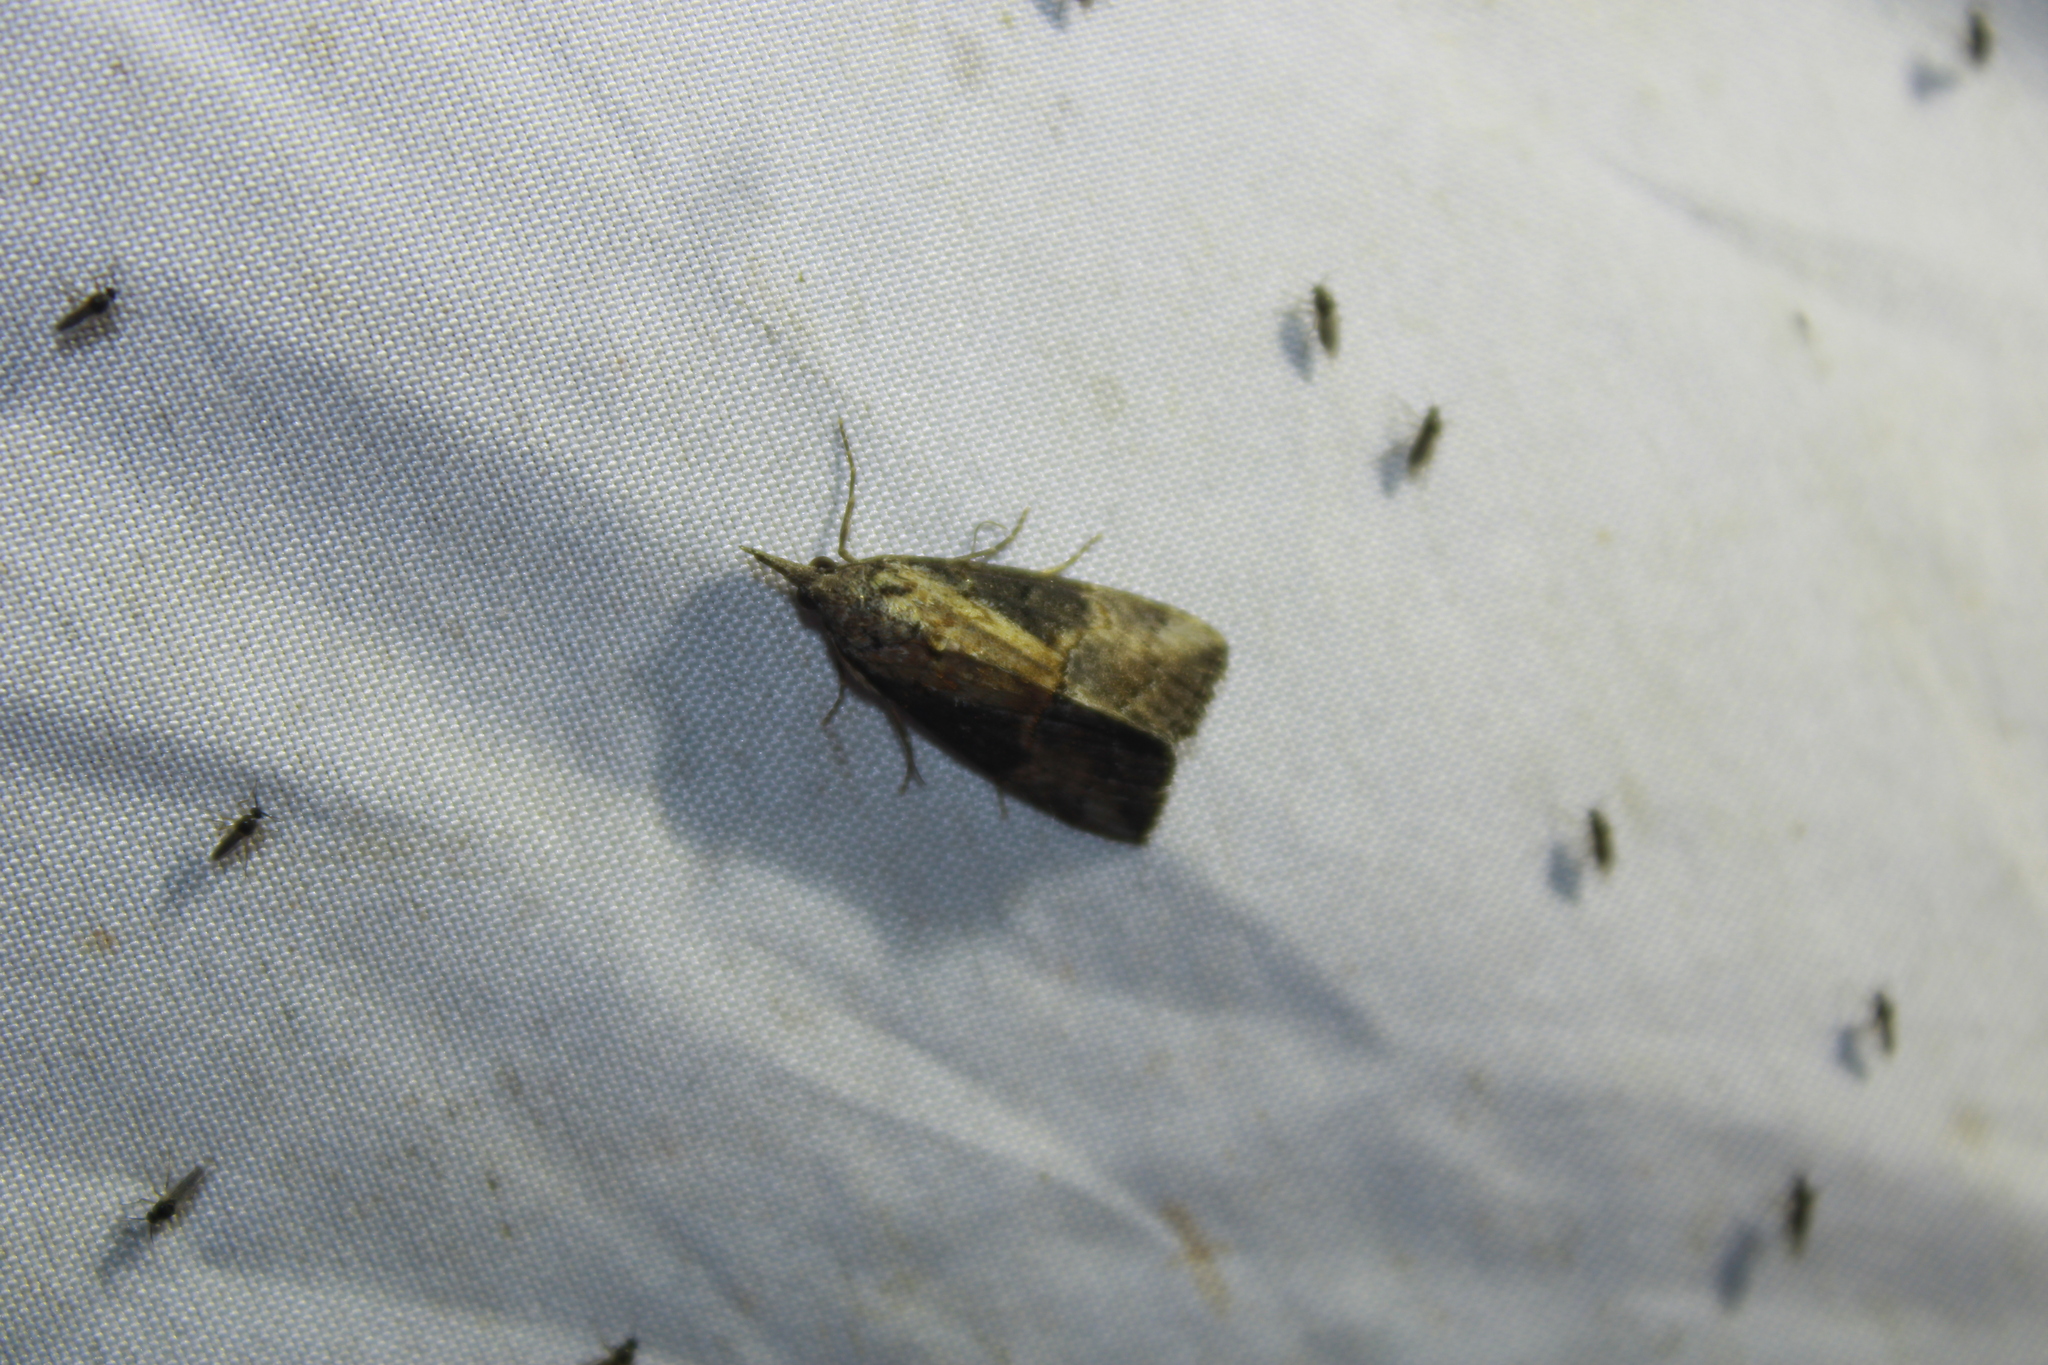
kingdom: Animalia
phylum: Arthropoda
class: Insecta
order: Lepidoptera
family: Erebidae
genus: Hypena
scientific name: Hypena scabra
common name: Green cloverworm
